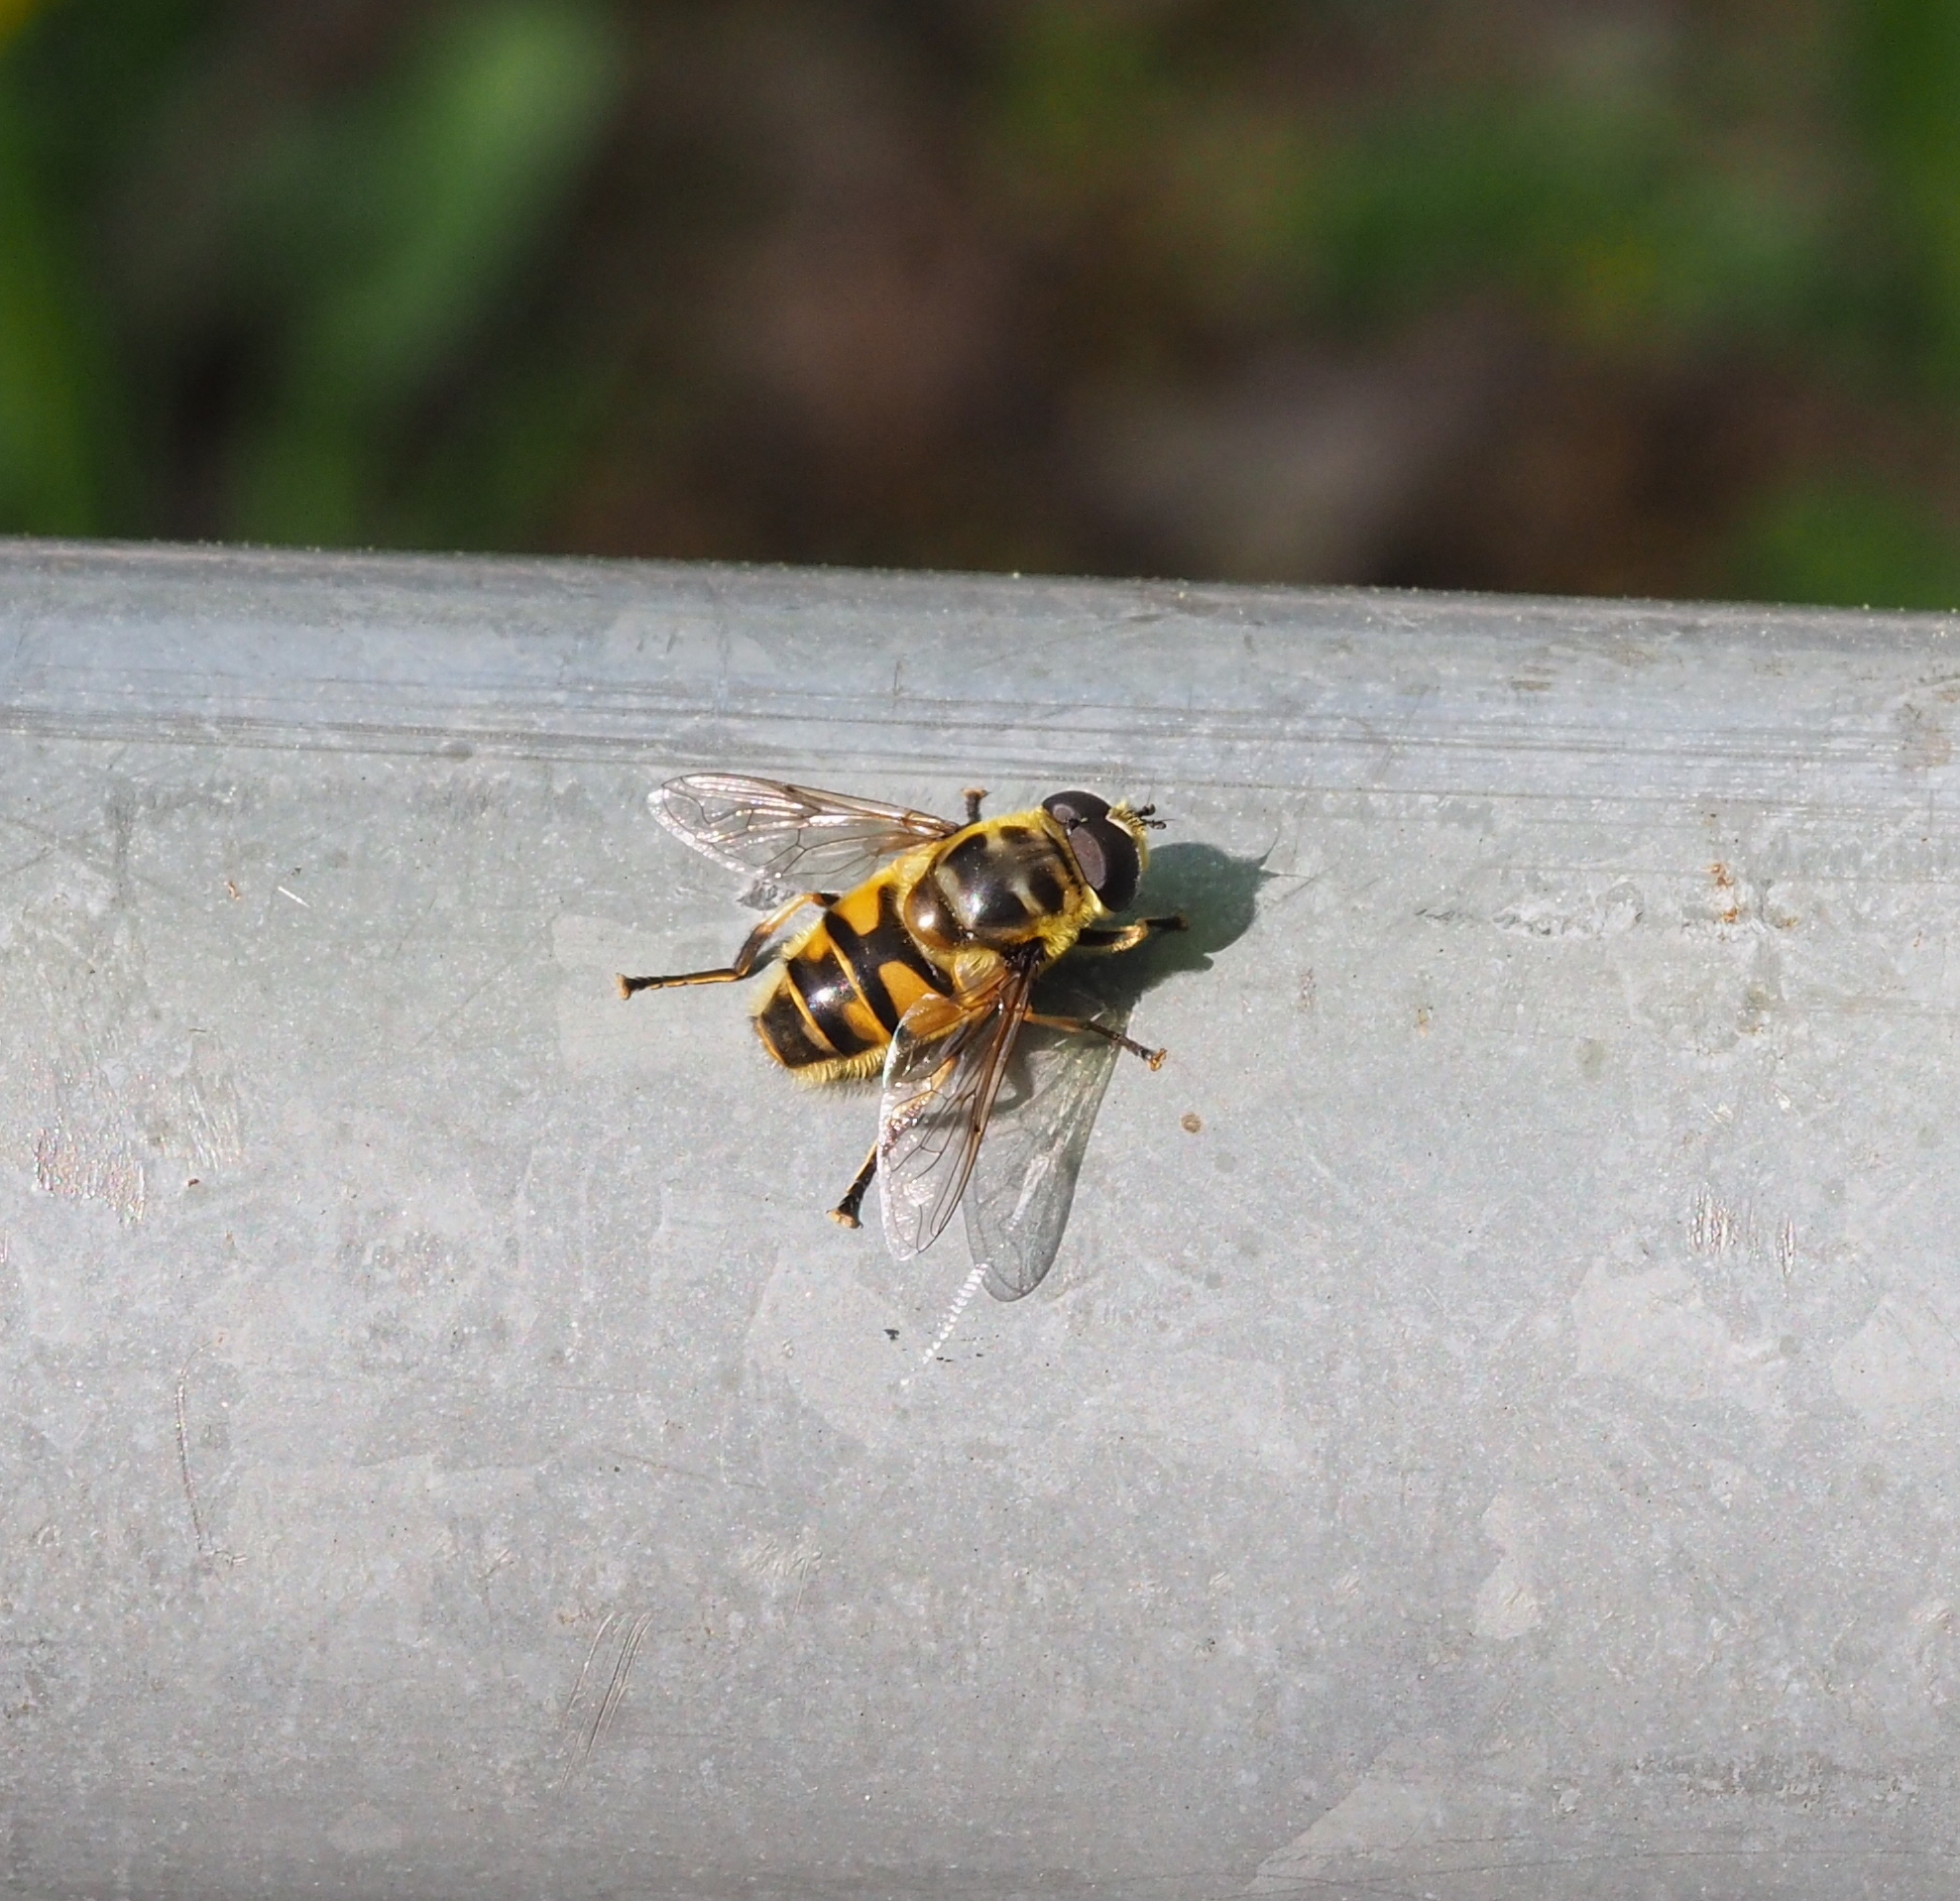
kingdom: Animalia
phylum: Arthropoda
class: Insecta
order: Diptera
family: Syrphidae
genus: Myathropa
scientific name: Myathropa florea
